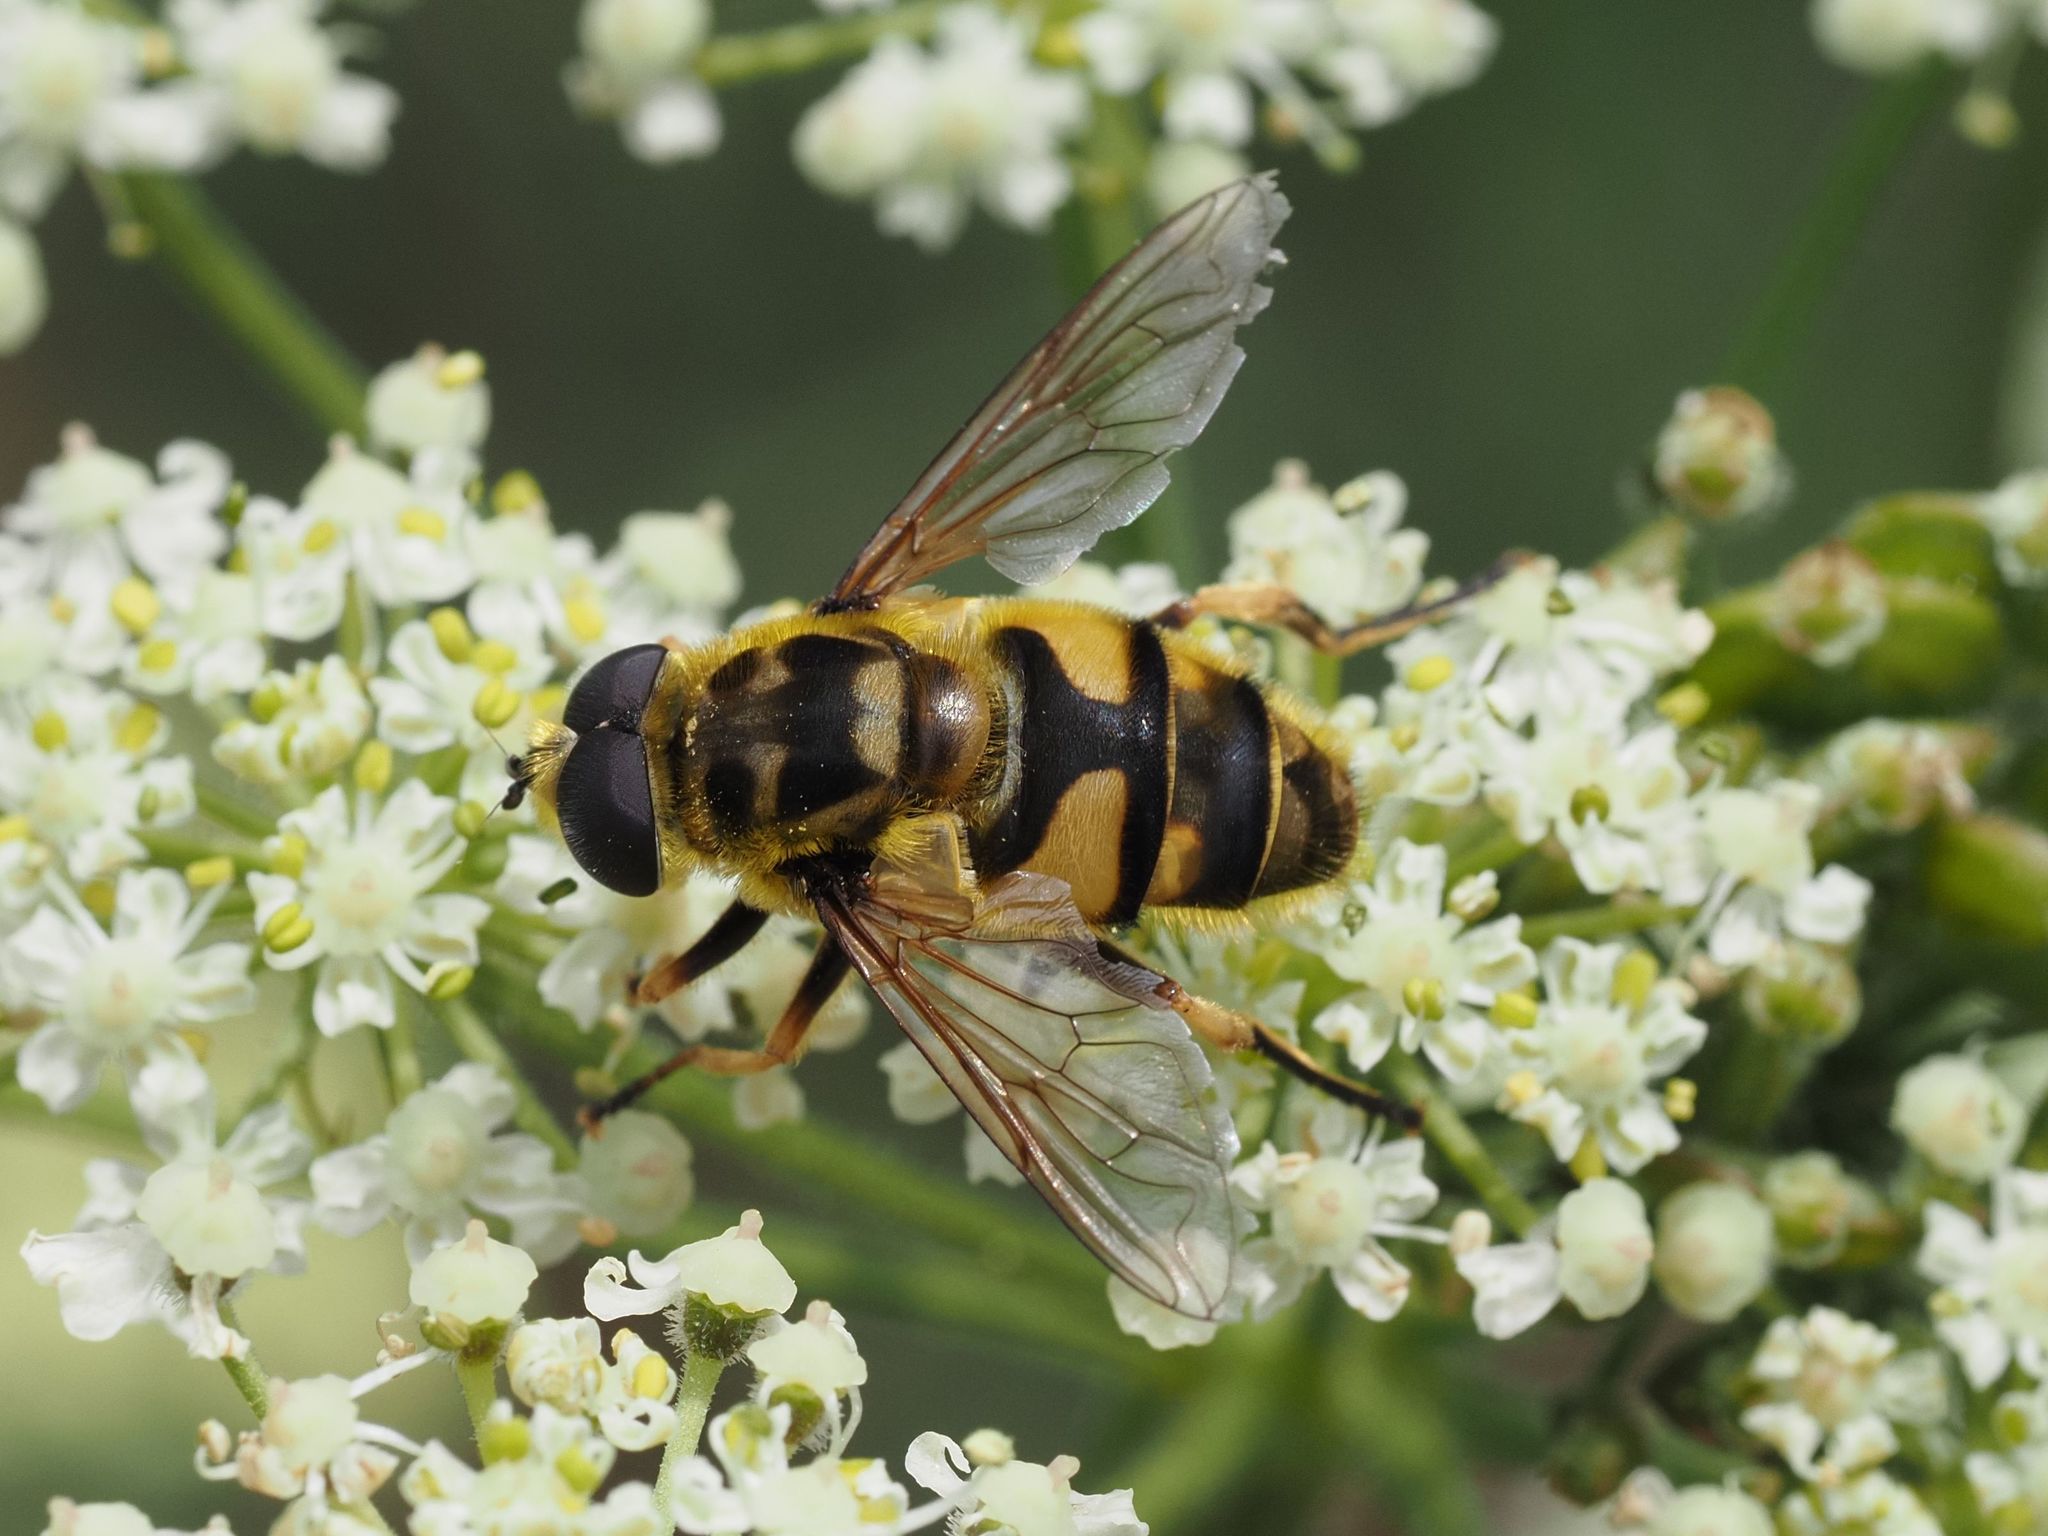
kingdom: Animalia
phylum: Arthropoda
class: Insecta
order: Diptera
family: Syrphidae
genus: Myathropa
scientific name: Myathropa florea
